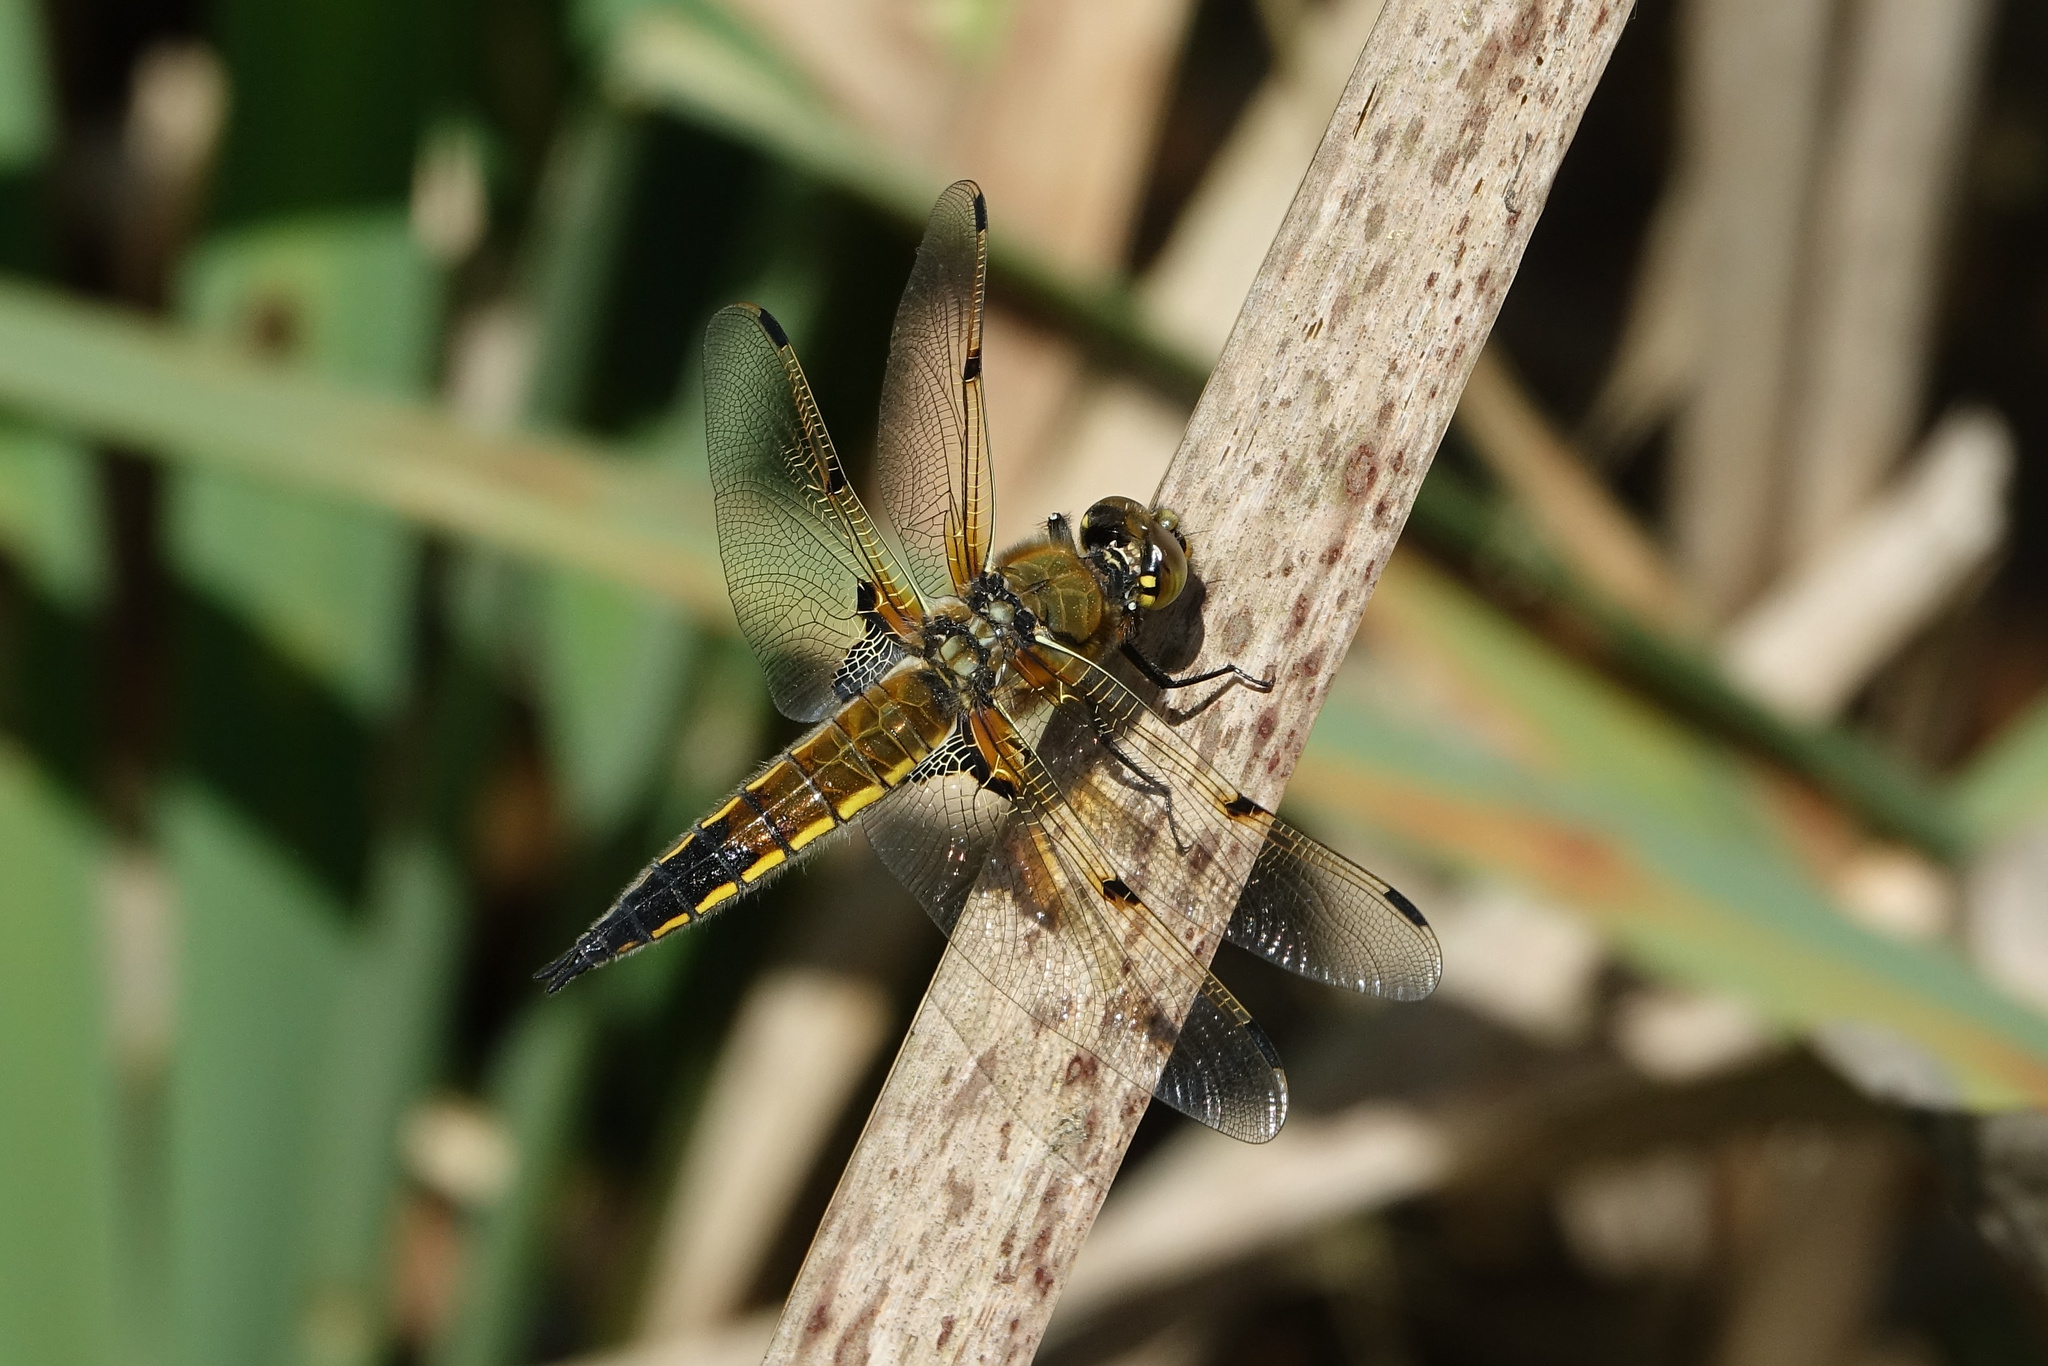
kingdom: Animalia
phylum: Arthropoda
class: Insecta
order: Odonata
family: Libellulidae
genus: Libellula
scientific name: Libellula quadrimaculata
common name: Four-spotted chaser
